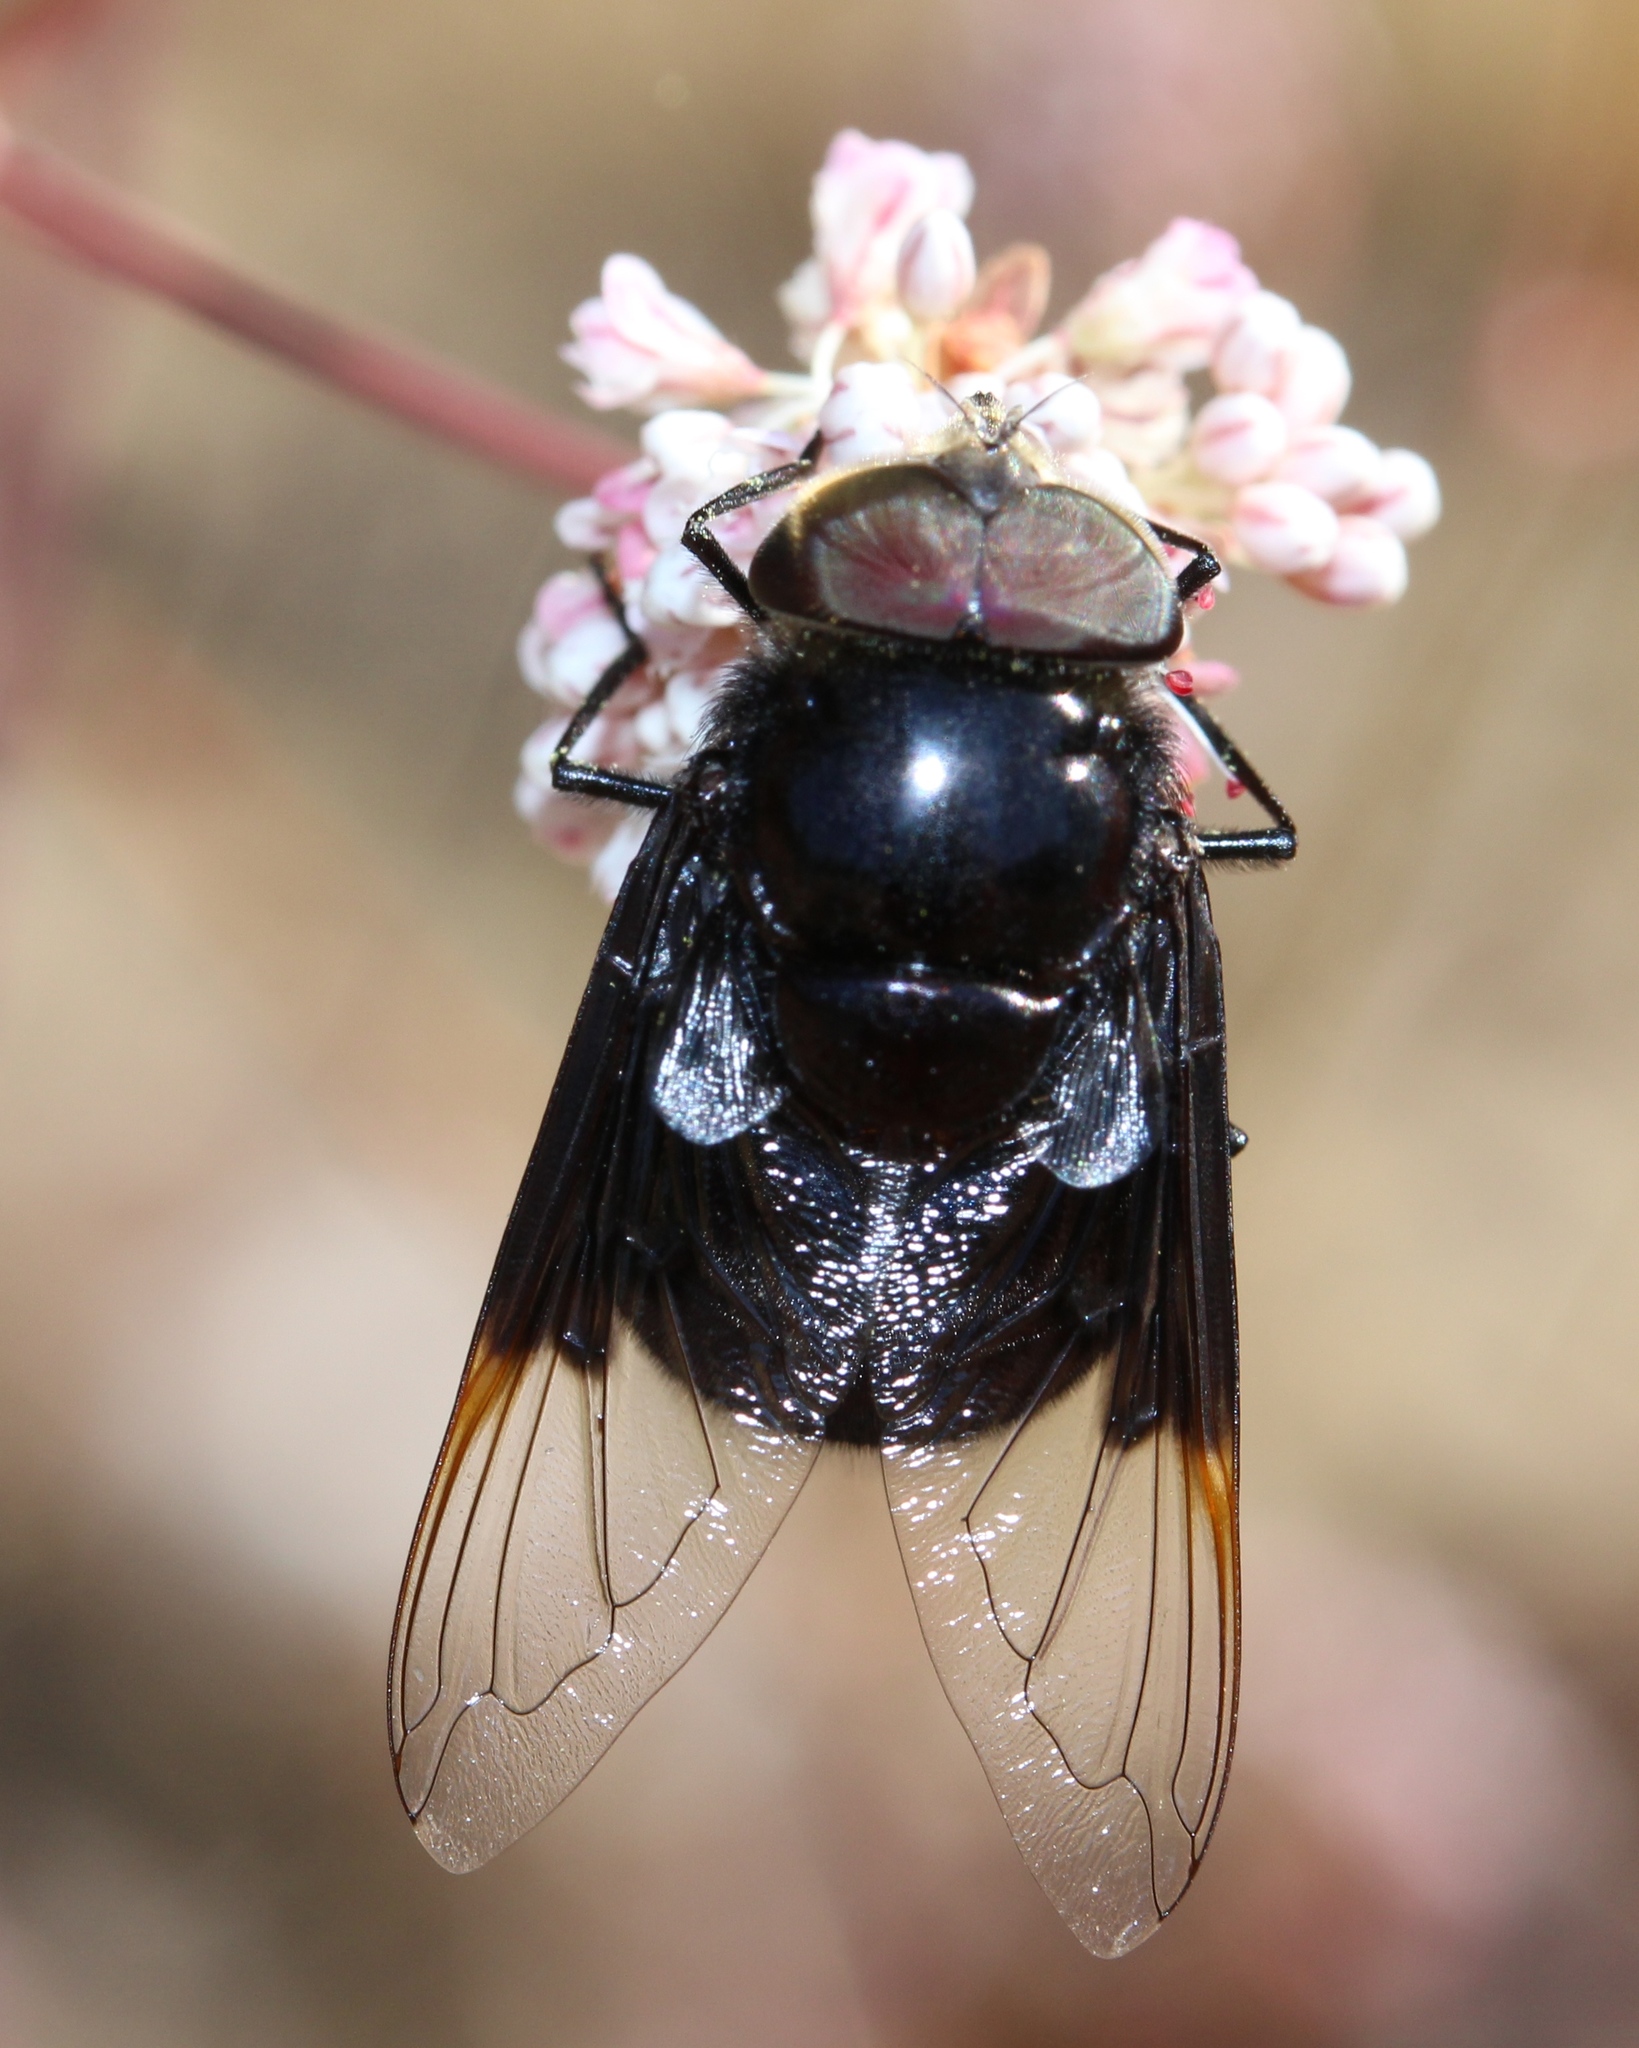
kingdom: Animalia
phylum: Arthropoda
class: Insecta
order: Diptera
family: Syrphidae
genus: Copestylum
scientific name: Copestylum violaceum
